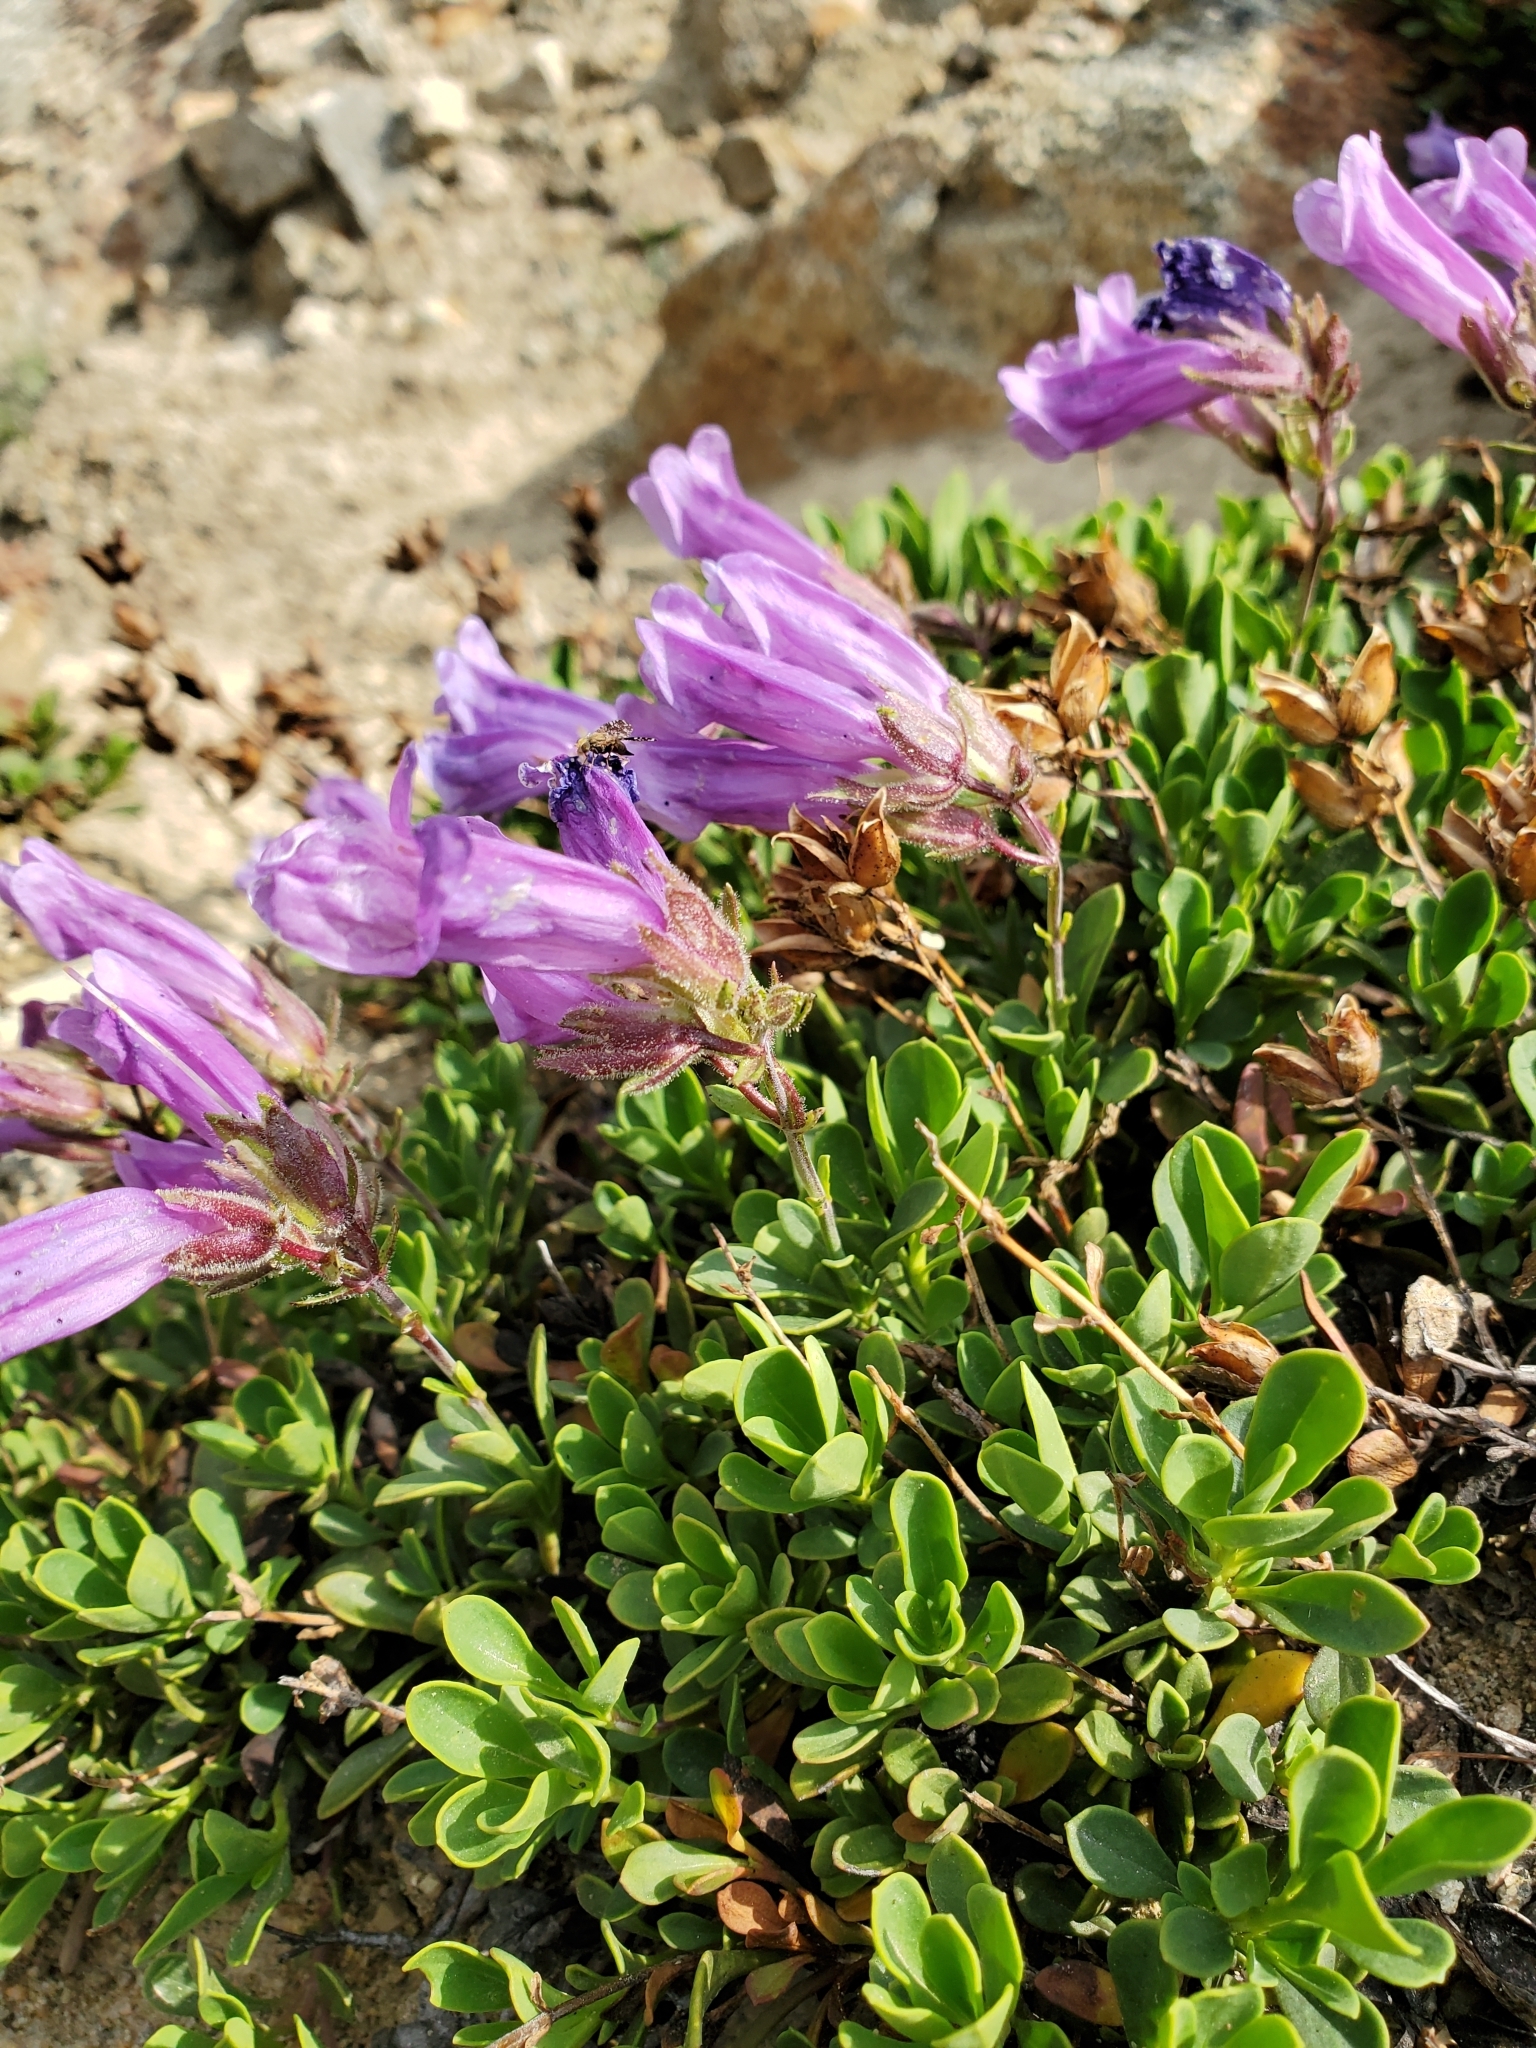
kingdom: Plantae
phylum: Tracheophyta
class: Magnoliopsida
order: Lamiales
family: Plantaginaceae
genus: Penstemon
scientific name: Penstemon davidsonii
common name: Davidson's penstemon
